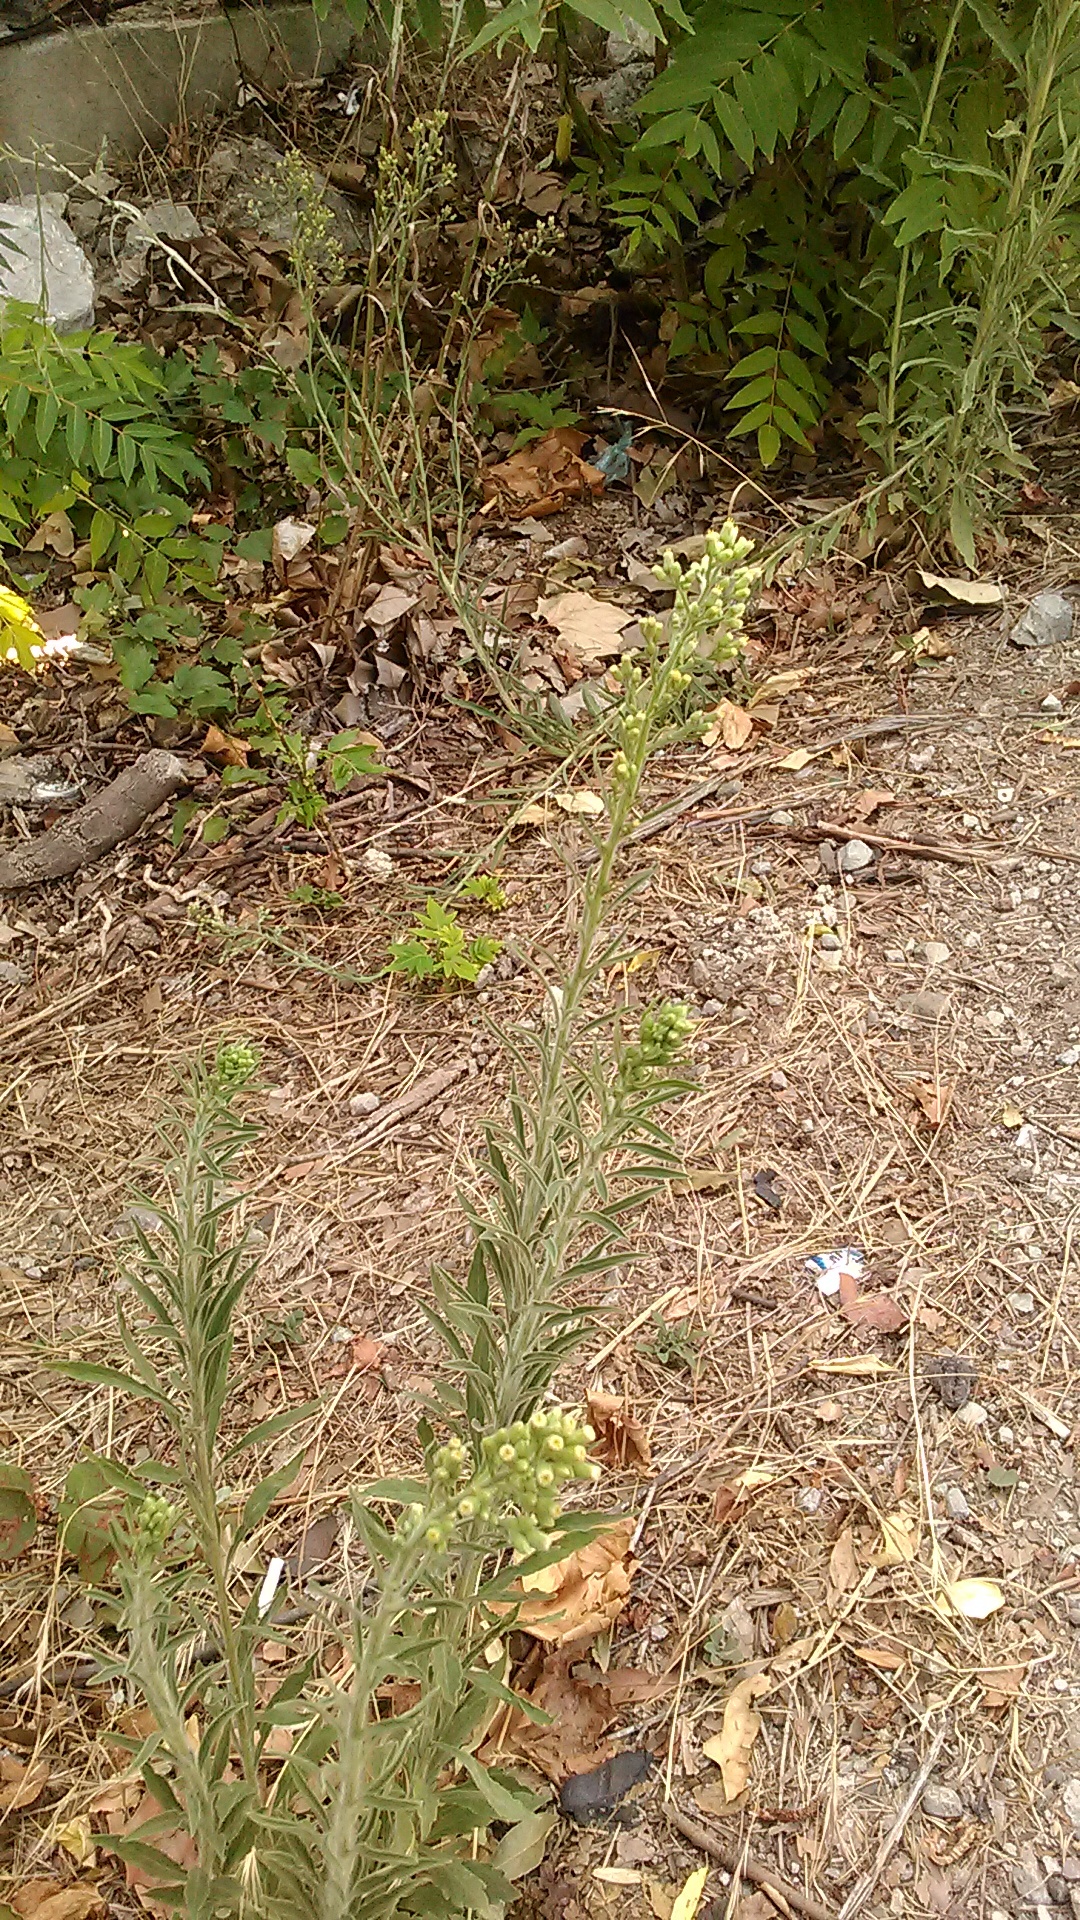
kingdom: Plantae
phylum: Tracheophyta
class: Magnoliopsida
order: Asterales
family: Asteraceae
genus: Erigeron
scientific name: Erigeron canadensis
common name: Canadian fleabane
